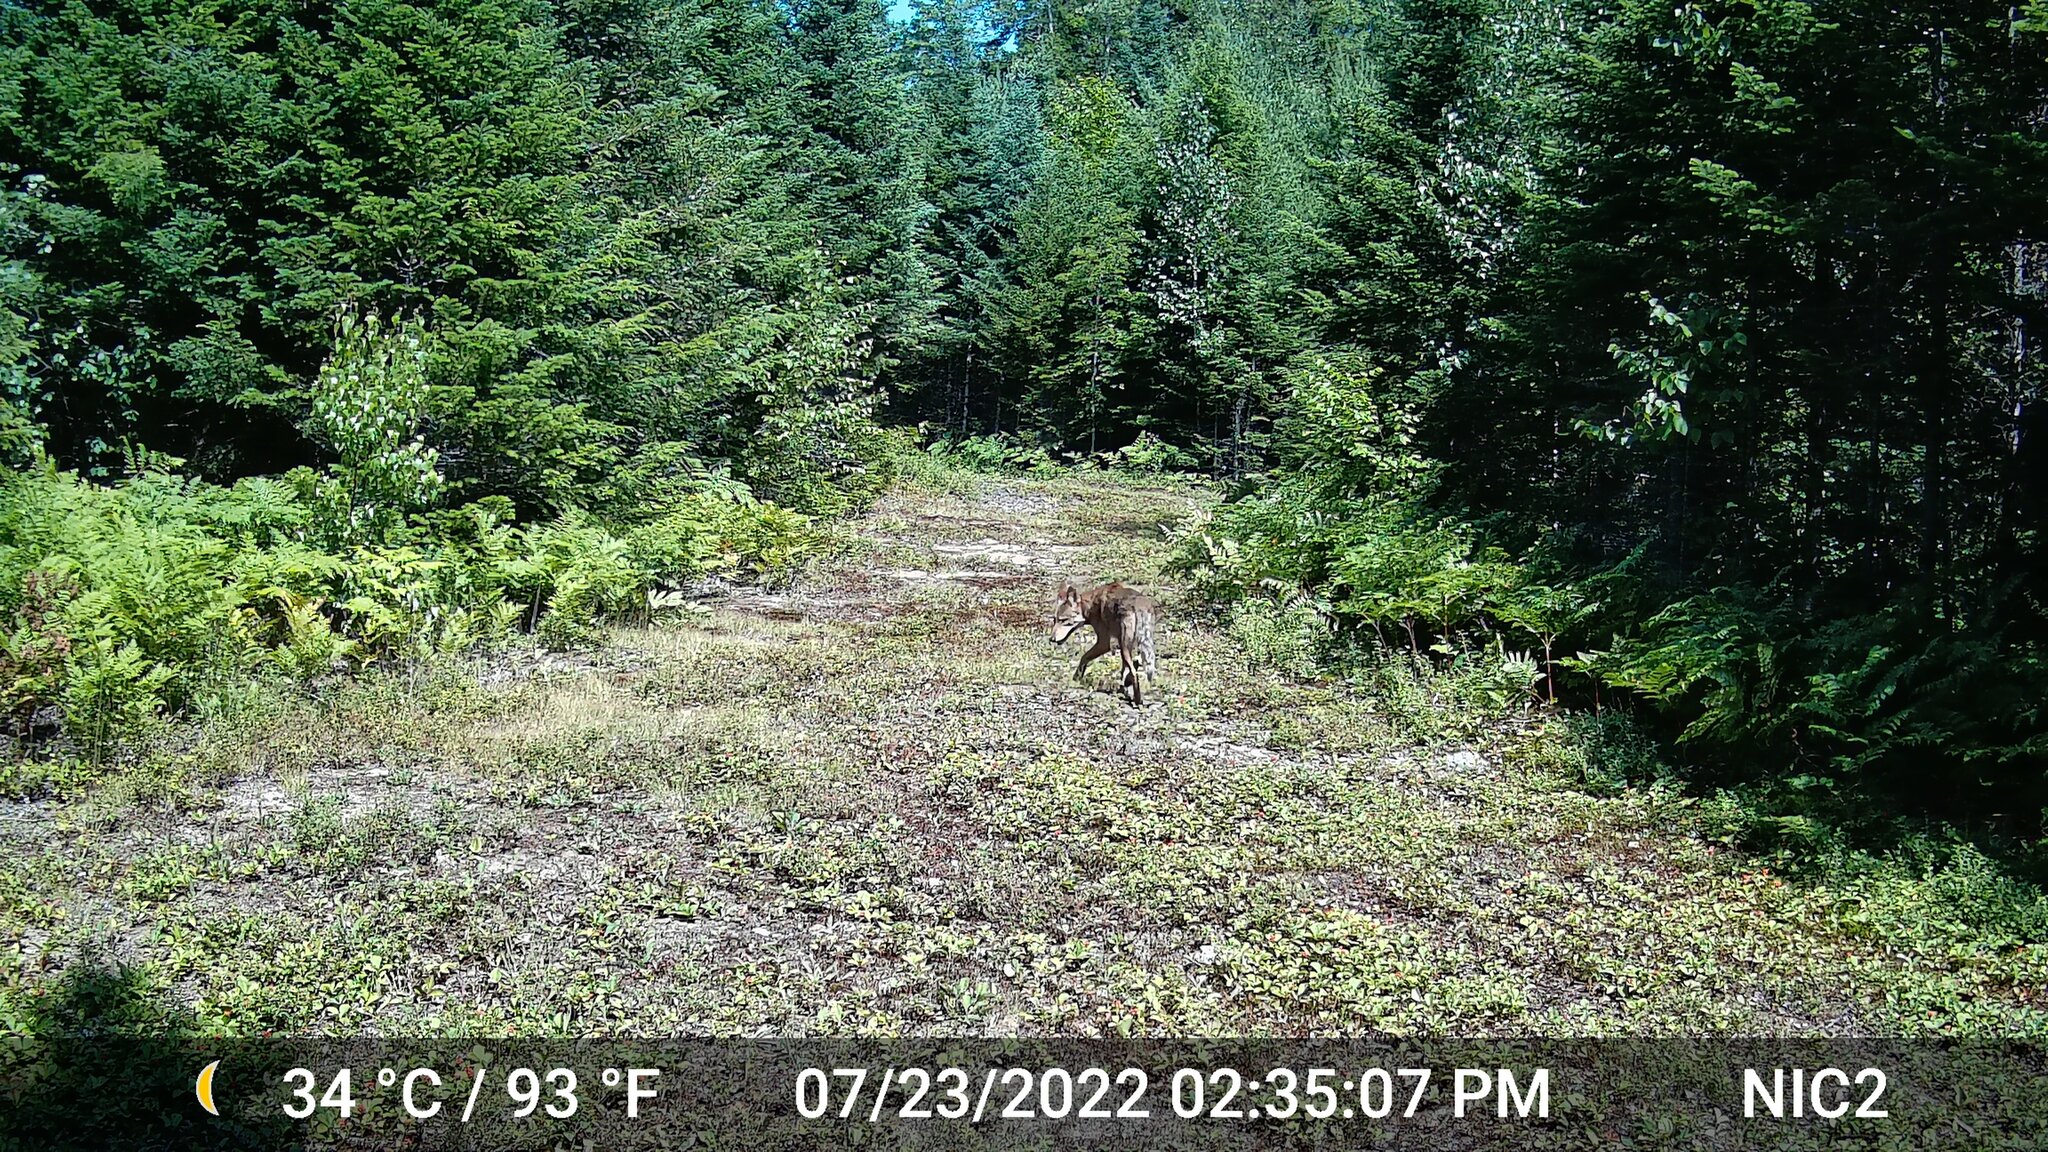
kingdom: Animalia
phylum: Chordata
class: Mammalia
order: Carnivora
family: Canidae
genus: Canis
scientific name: Canis latrans
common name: Coyote
